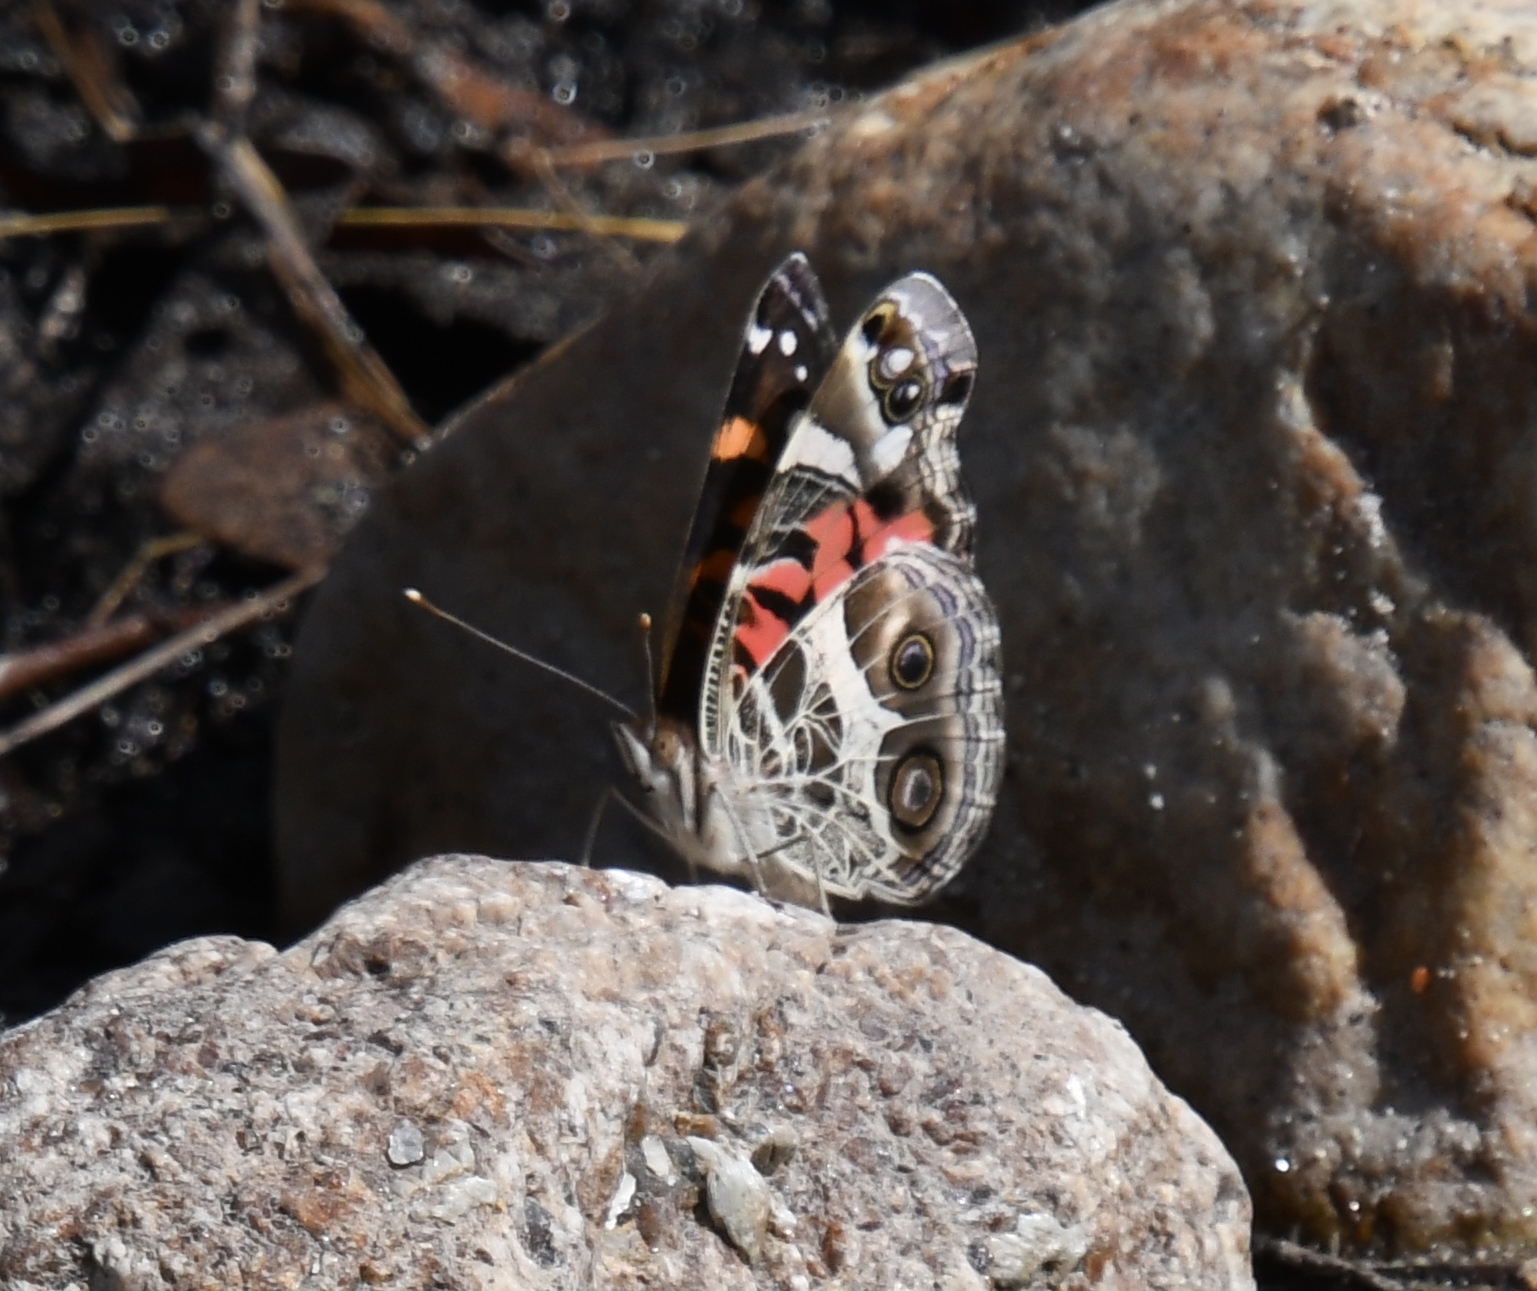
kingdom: Animalia
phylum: Arthropoda
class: Insecta
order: Lepidoptera
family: Nymphalidae
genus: Vanessa
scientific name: Vanessa virginiensis
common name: American lady
